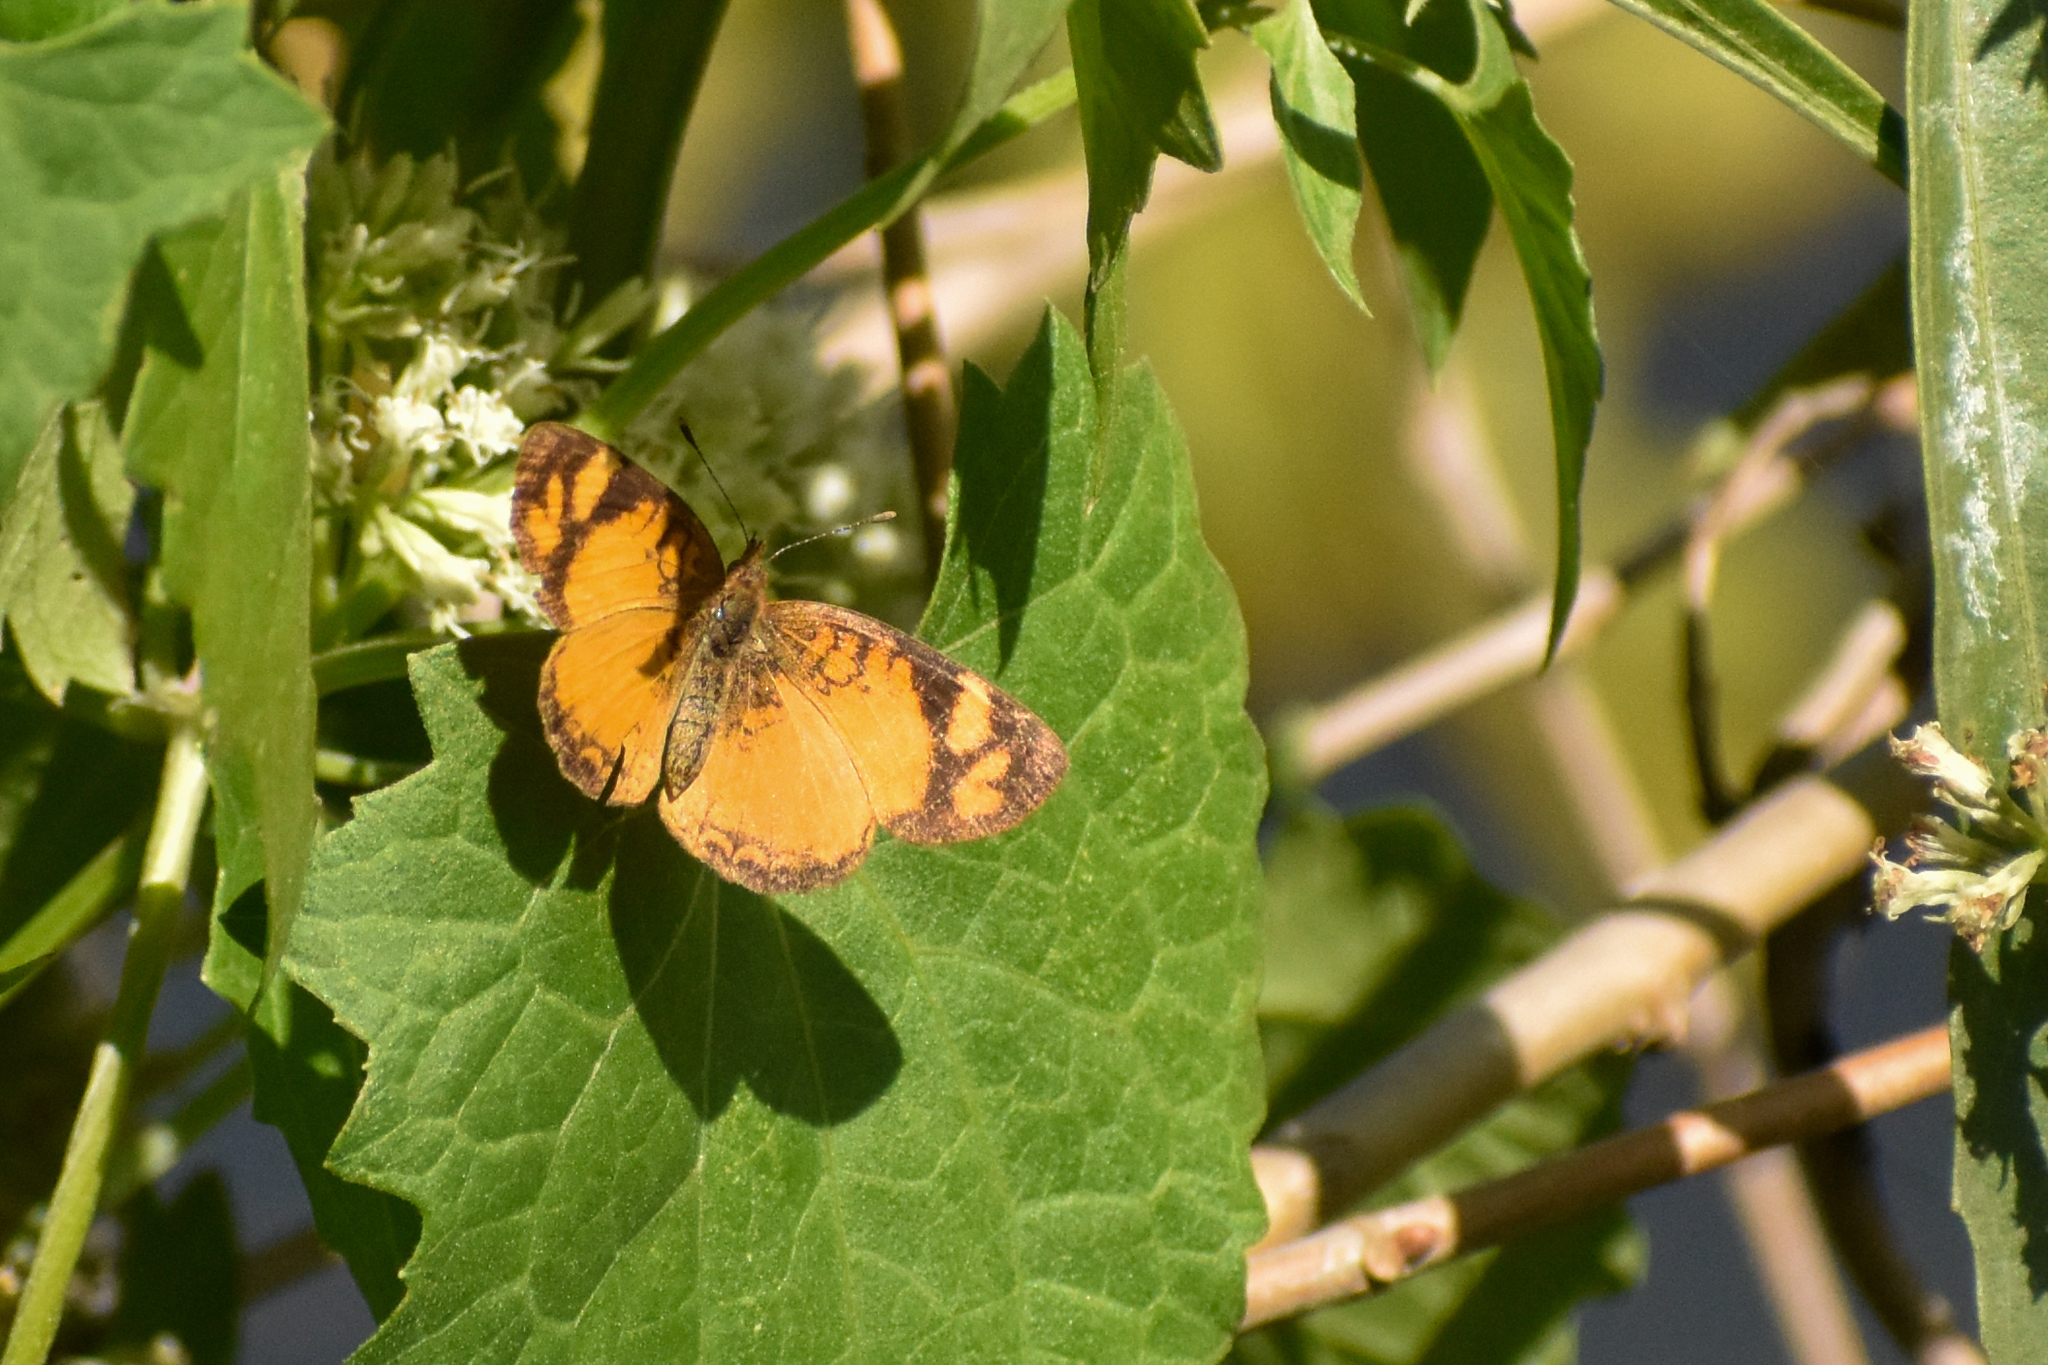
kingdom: Animalia
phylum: Arthropoda
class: Insecta
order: Lepidoptera
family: Nymphalidae
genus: Tegosa
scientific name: Tegosa claudina
